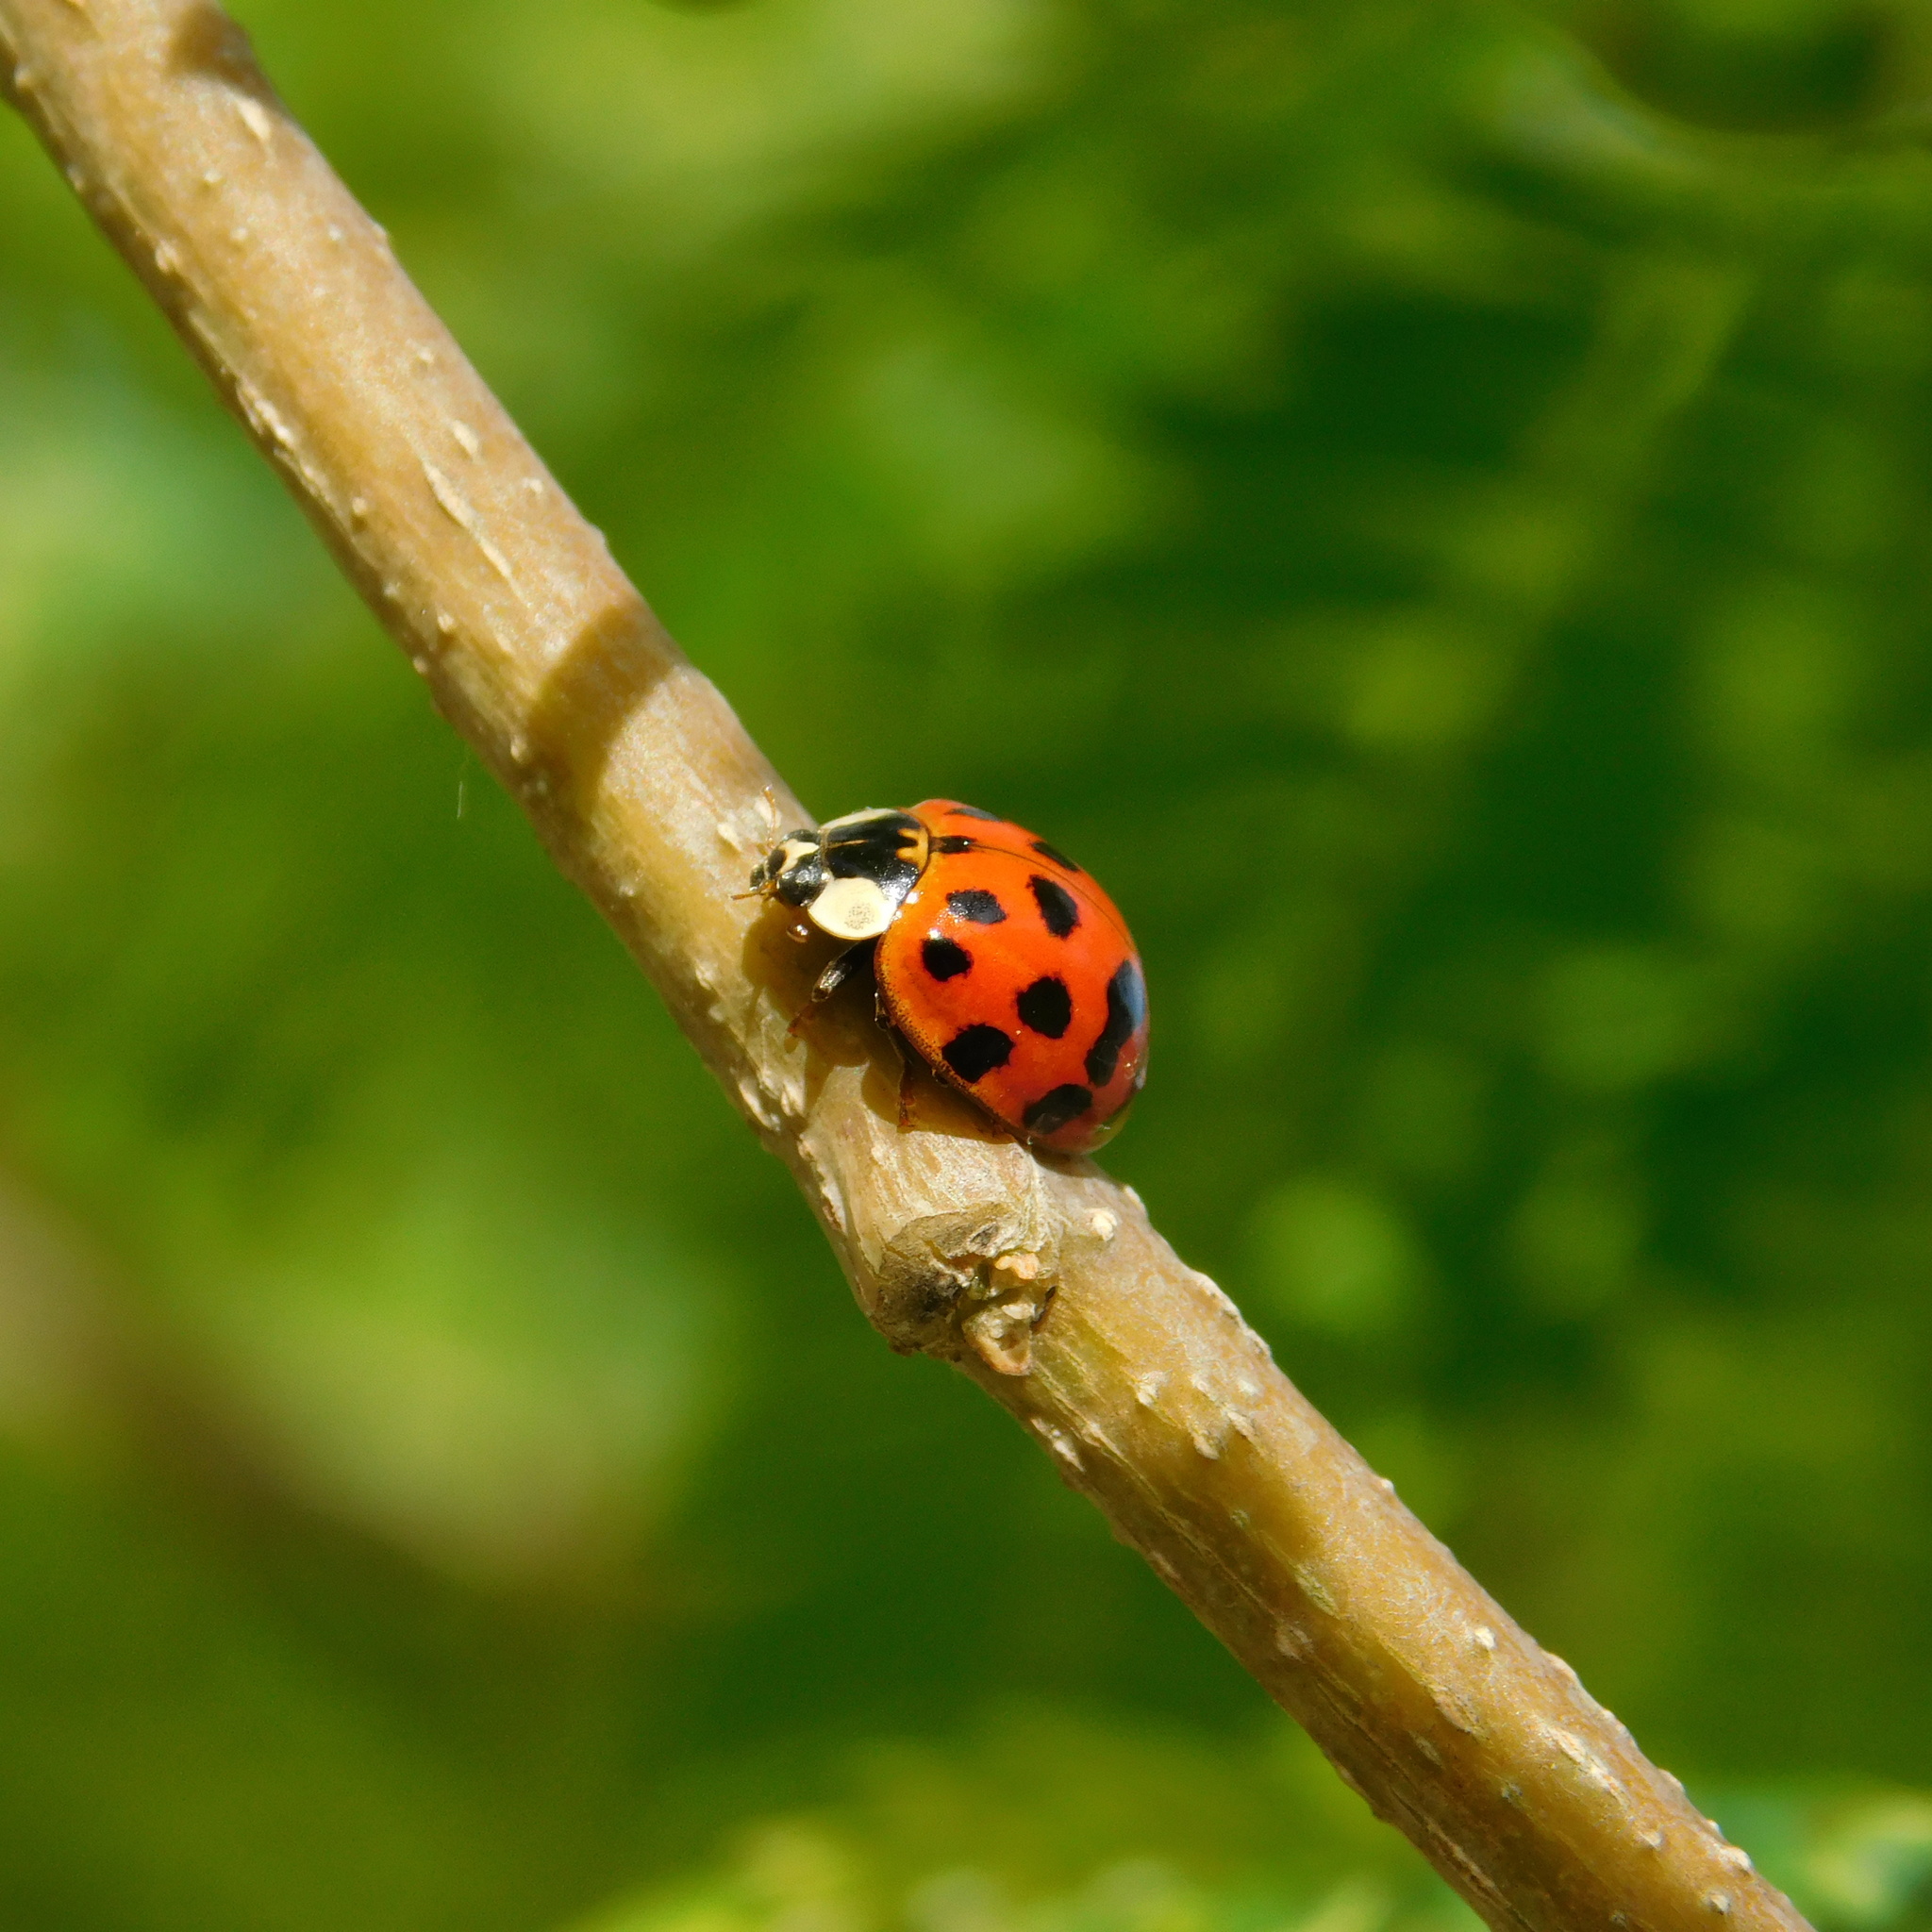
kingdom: Animalia
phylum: Arthropoda
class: Insecta
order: Coleoptera
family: Coccinellidae
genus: Harmonia
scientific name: Harmonia axyridis
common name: Harlequin ladybird
